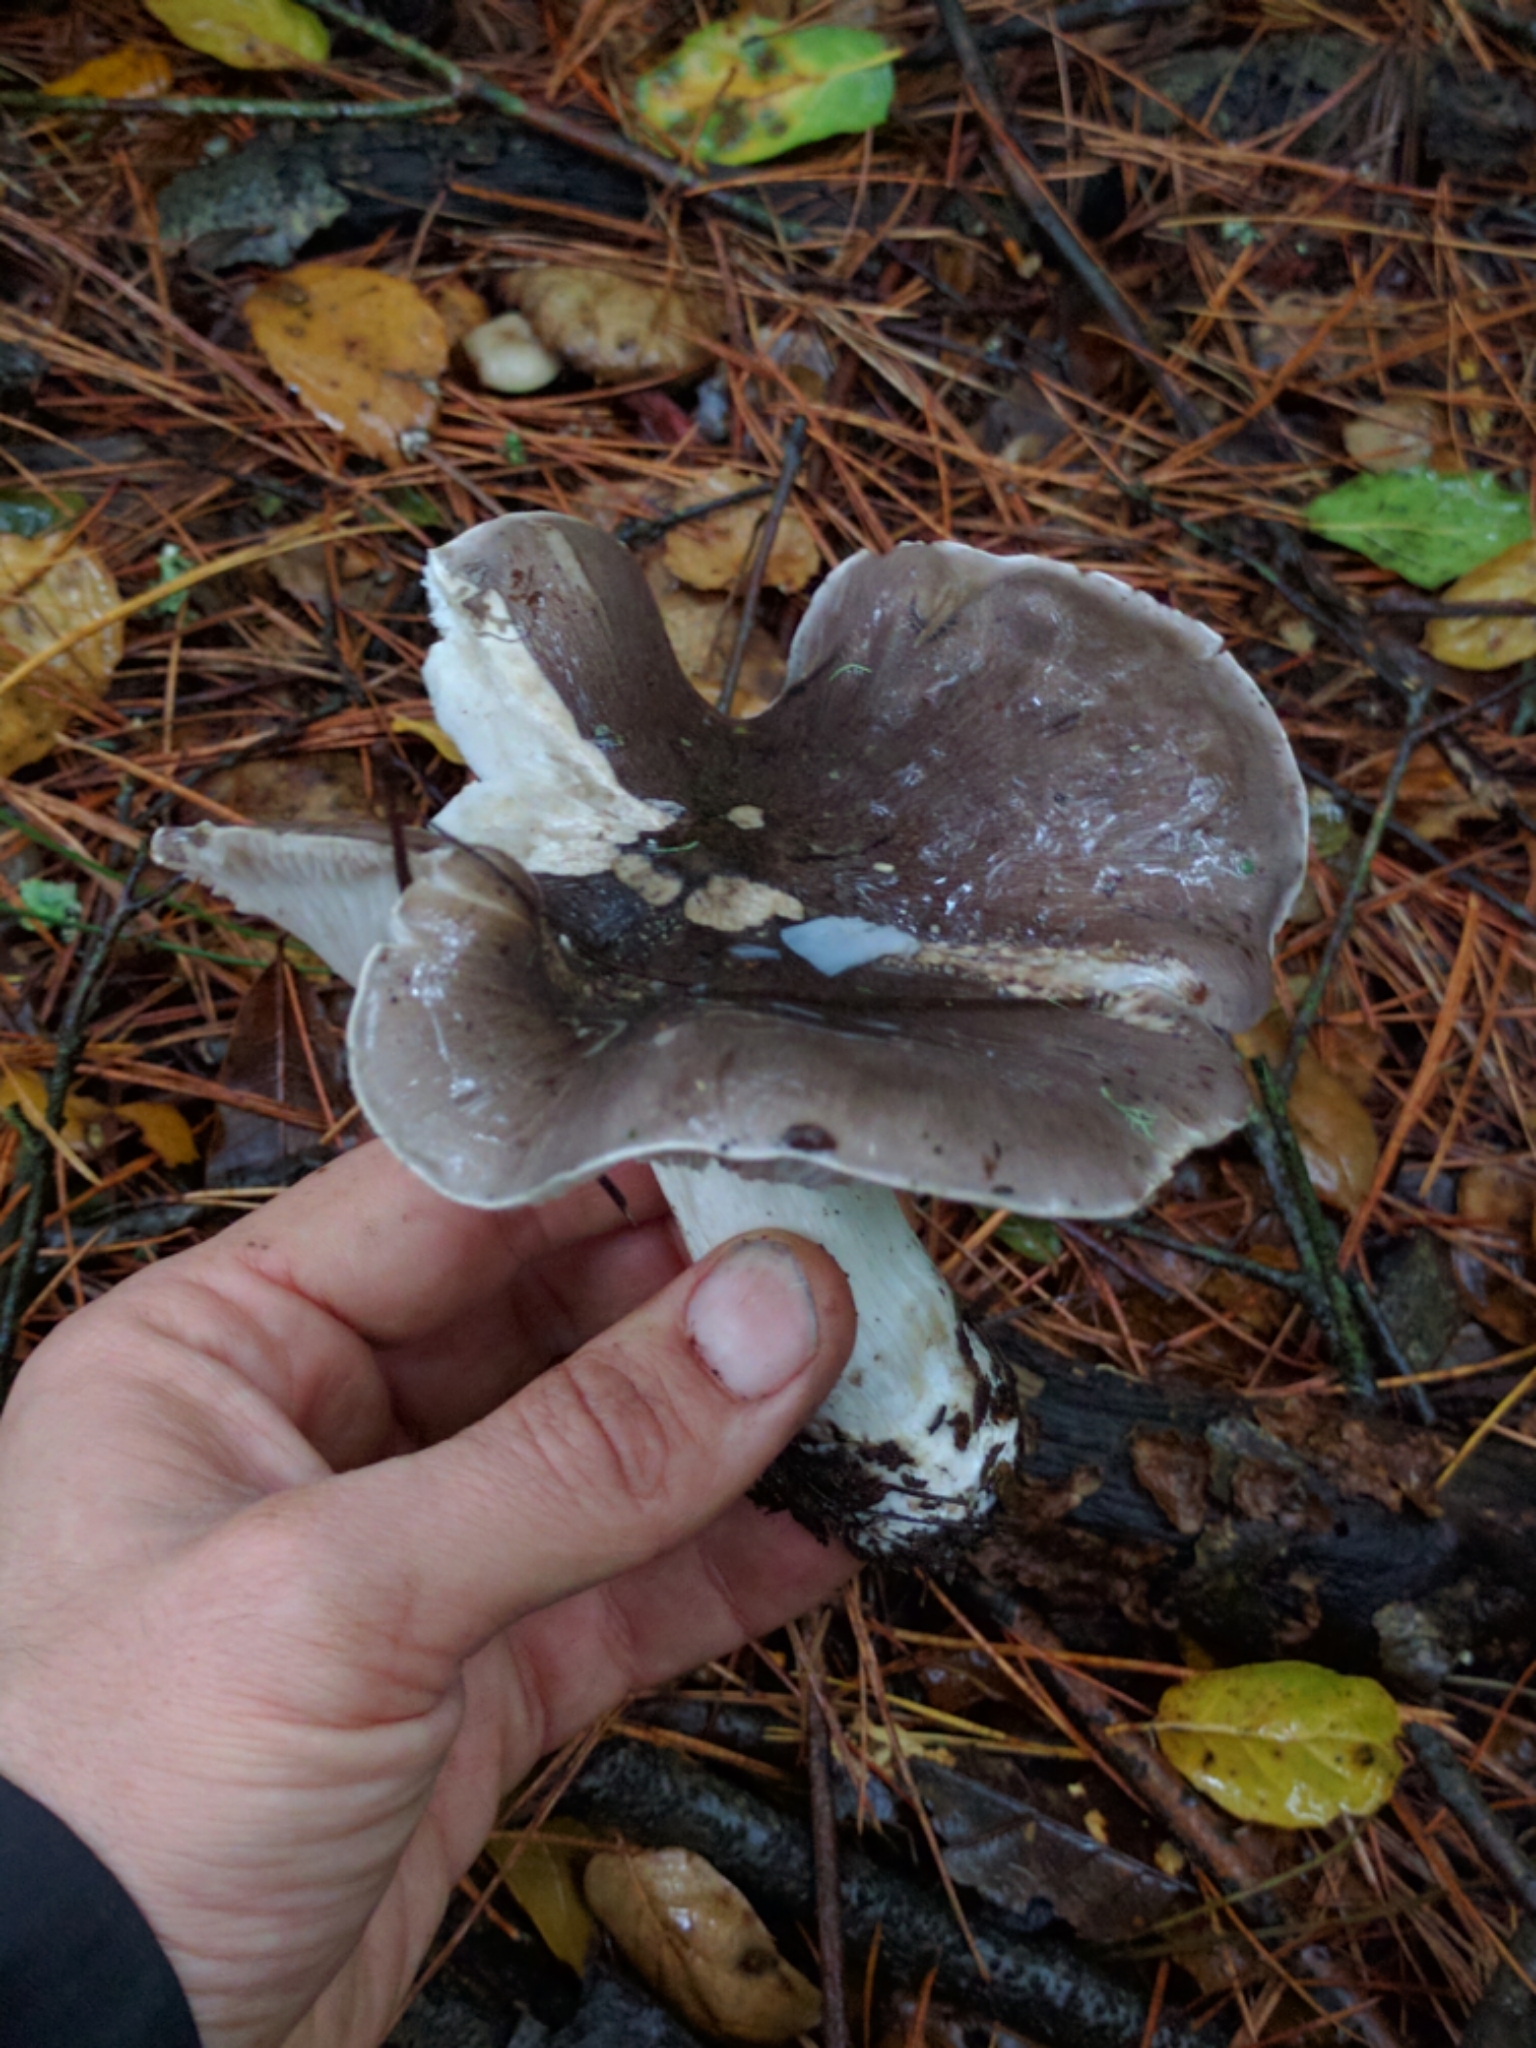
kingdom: Fungi
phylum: Basidiomycota
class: Agaricomycetes
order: Agaricales
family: Tricholomataceae
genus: Tricholoma
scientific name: Tricholoma griseoviolaceum
